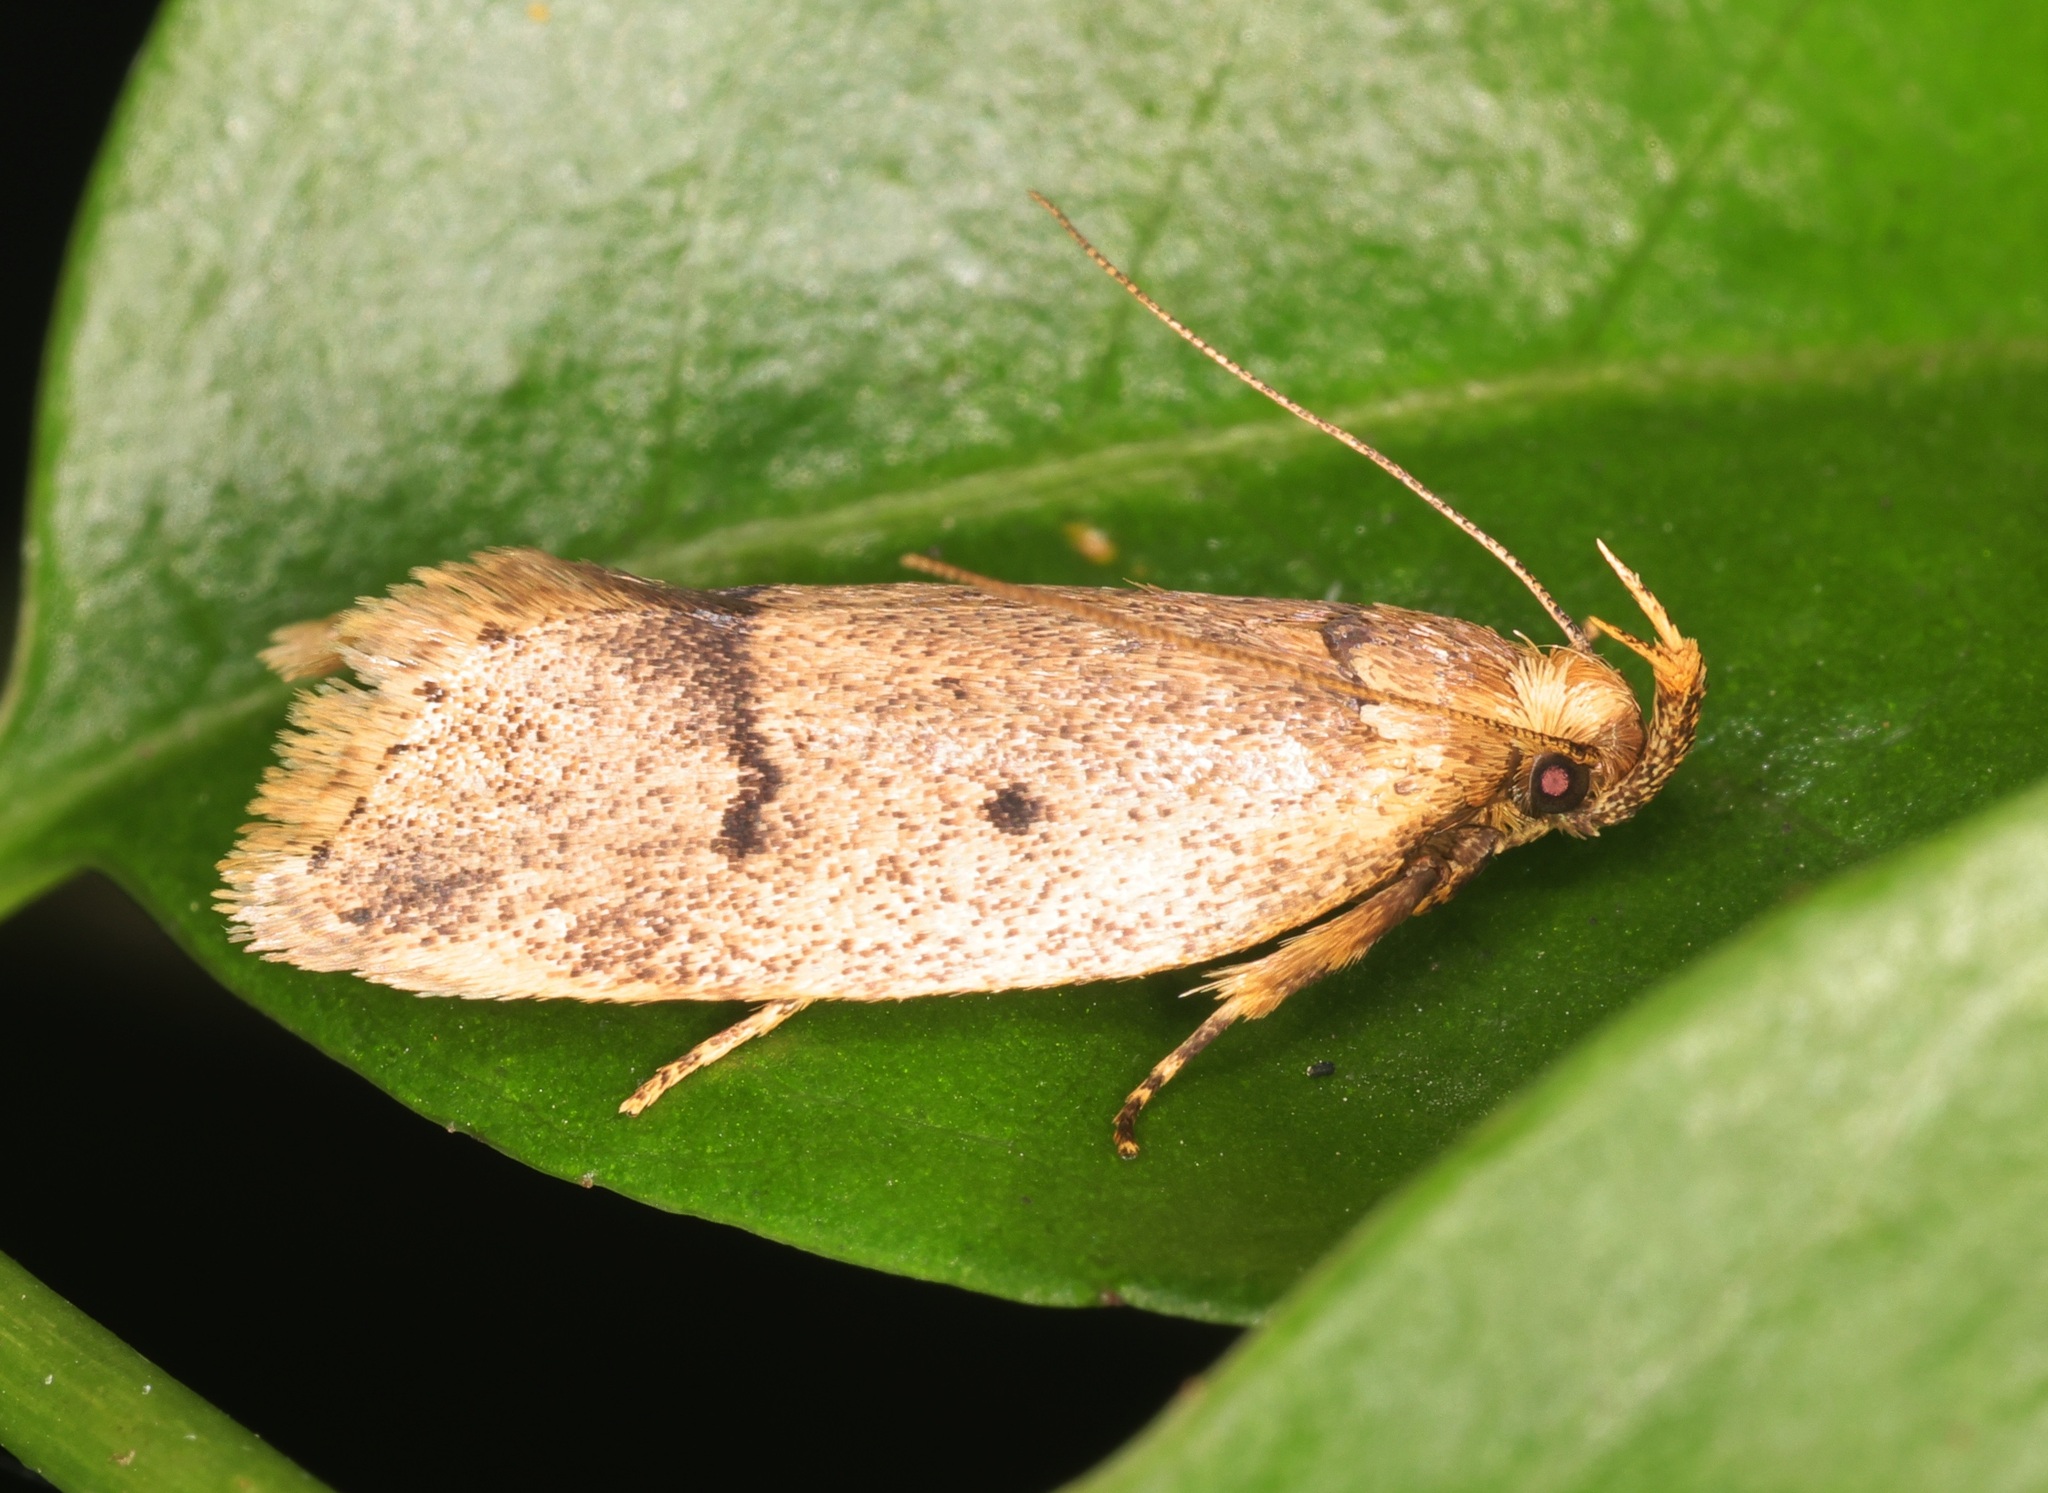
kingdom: Animalia
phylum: Arthropoda
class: Insecta
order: Lepidoptera
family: Autostichidae
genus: Phaulolechia
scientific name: Phaulolechia
